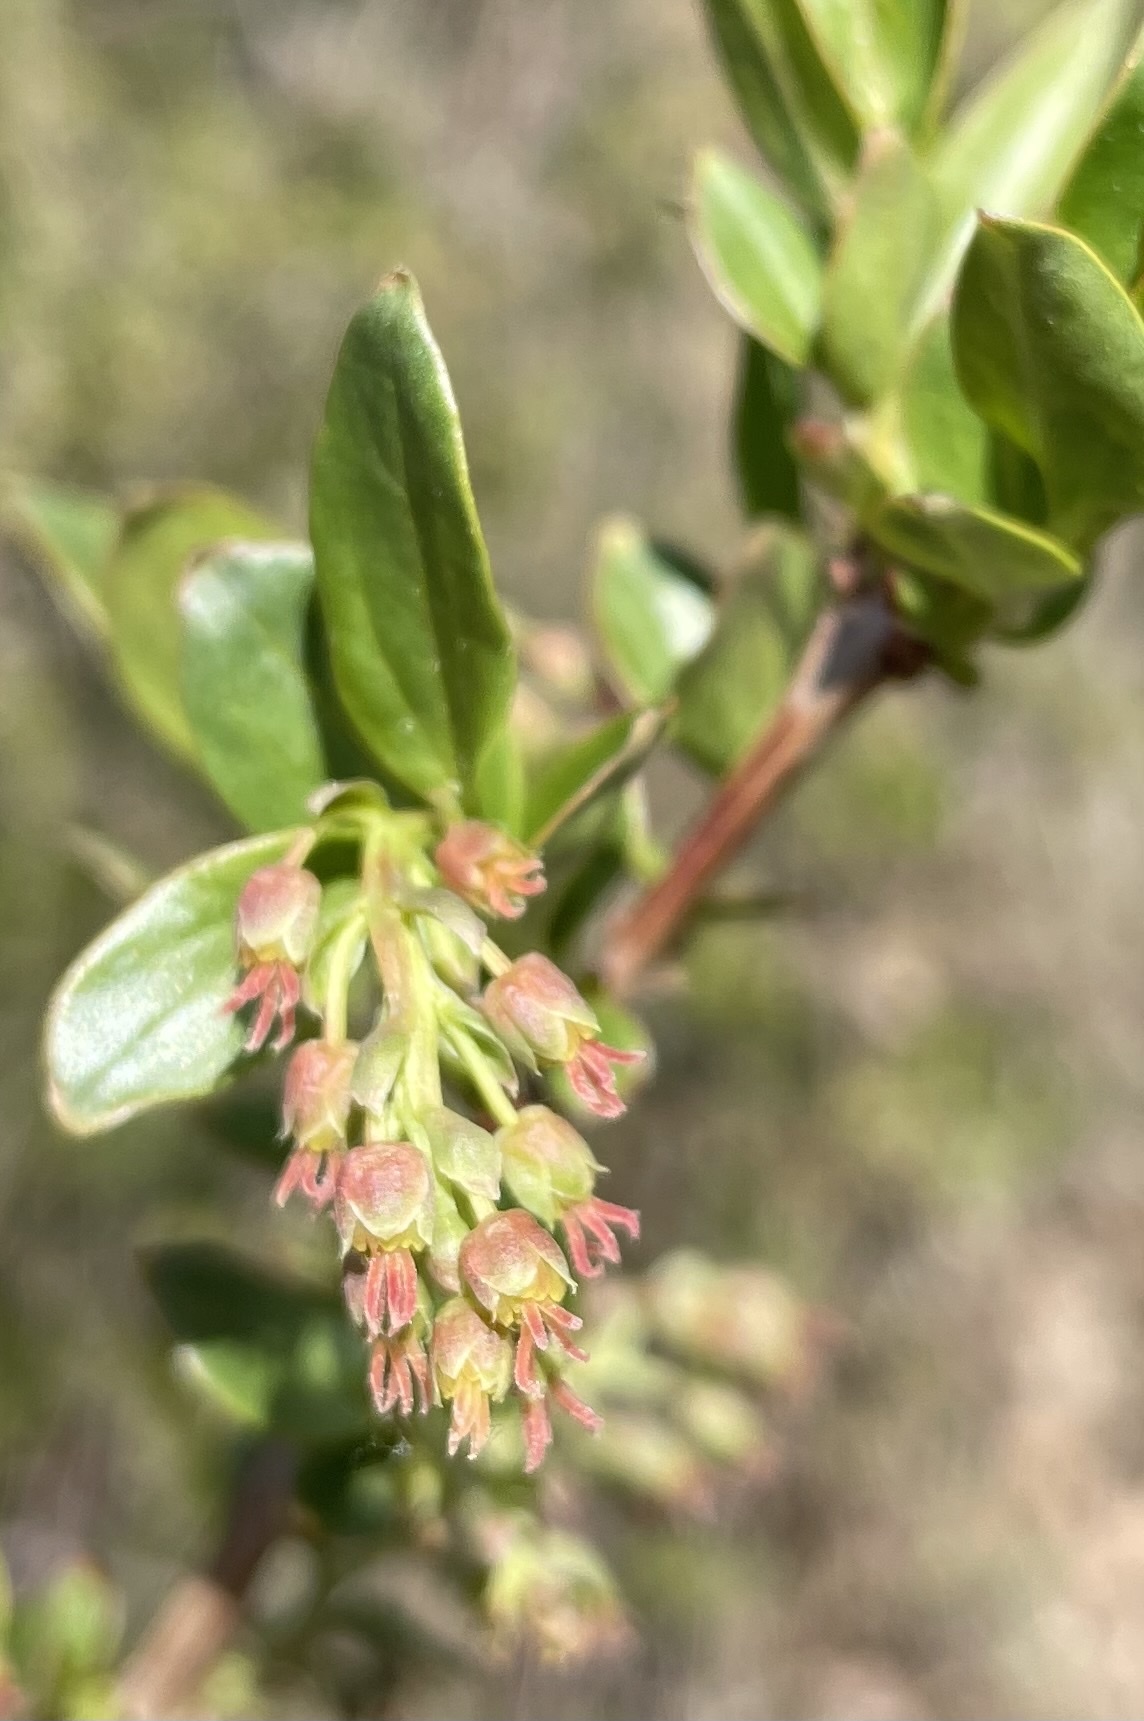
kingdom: Plantae
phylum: Tracheophyta
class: Magnoliopsida
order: Cucurbitales
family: Coriariaceae
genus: Coriaria
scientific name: Coriaria myrtifolia
